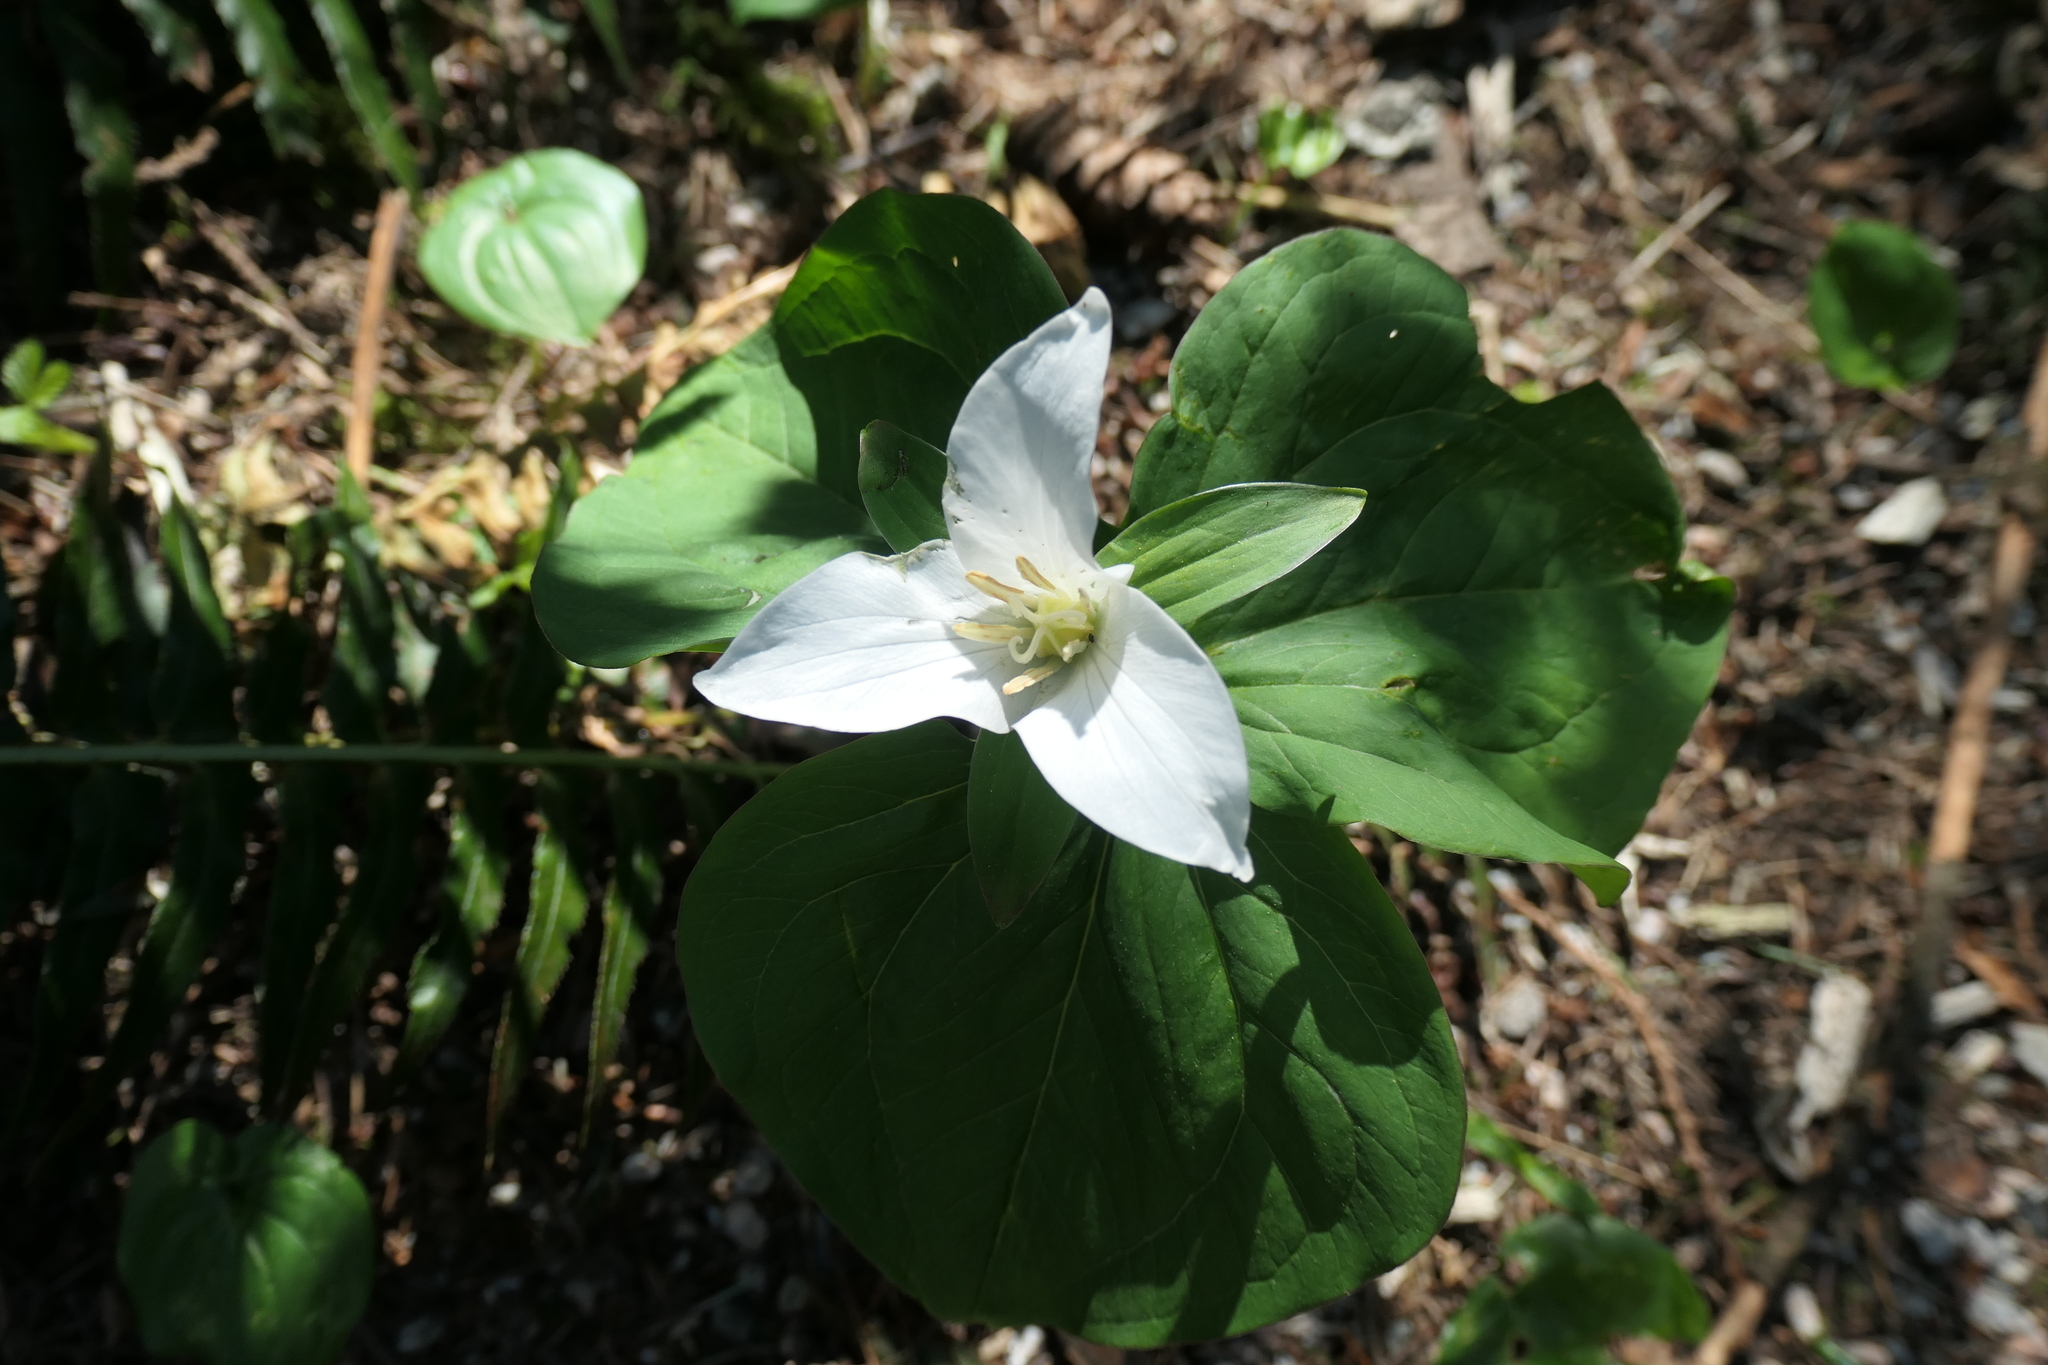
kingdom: Plantae
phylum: Tracheophyta
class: Liliopsida
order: Liliales
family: Melanthiaceae
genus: Trillium
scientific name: Trillium ovatum
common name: Pacific trillium
